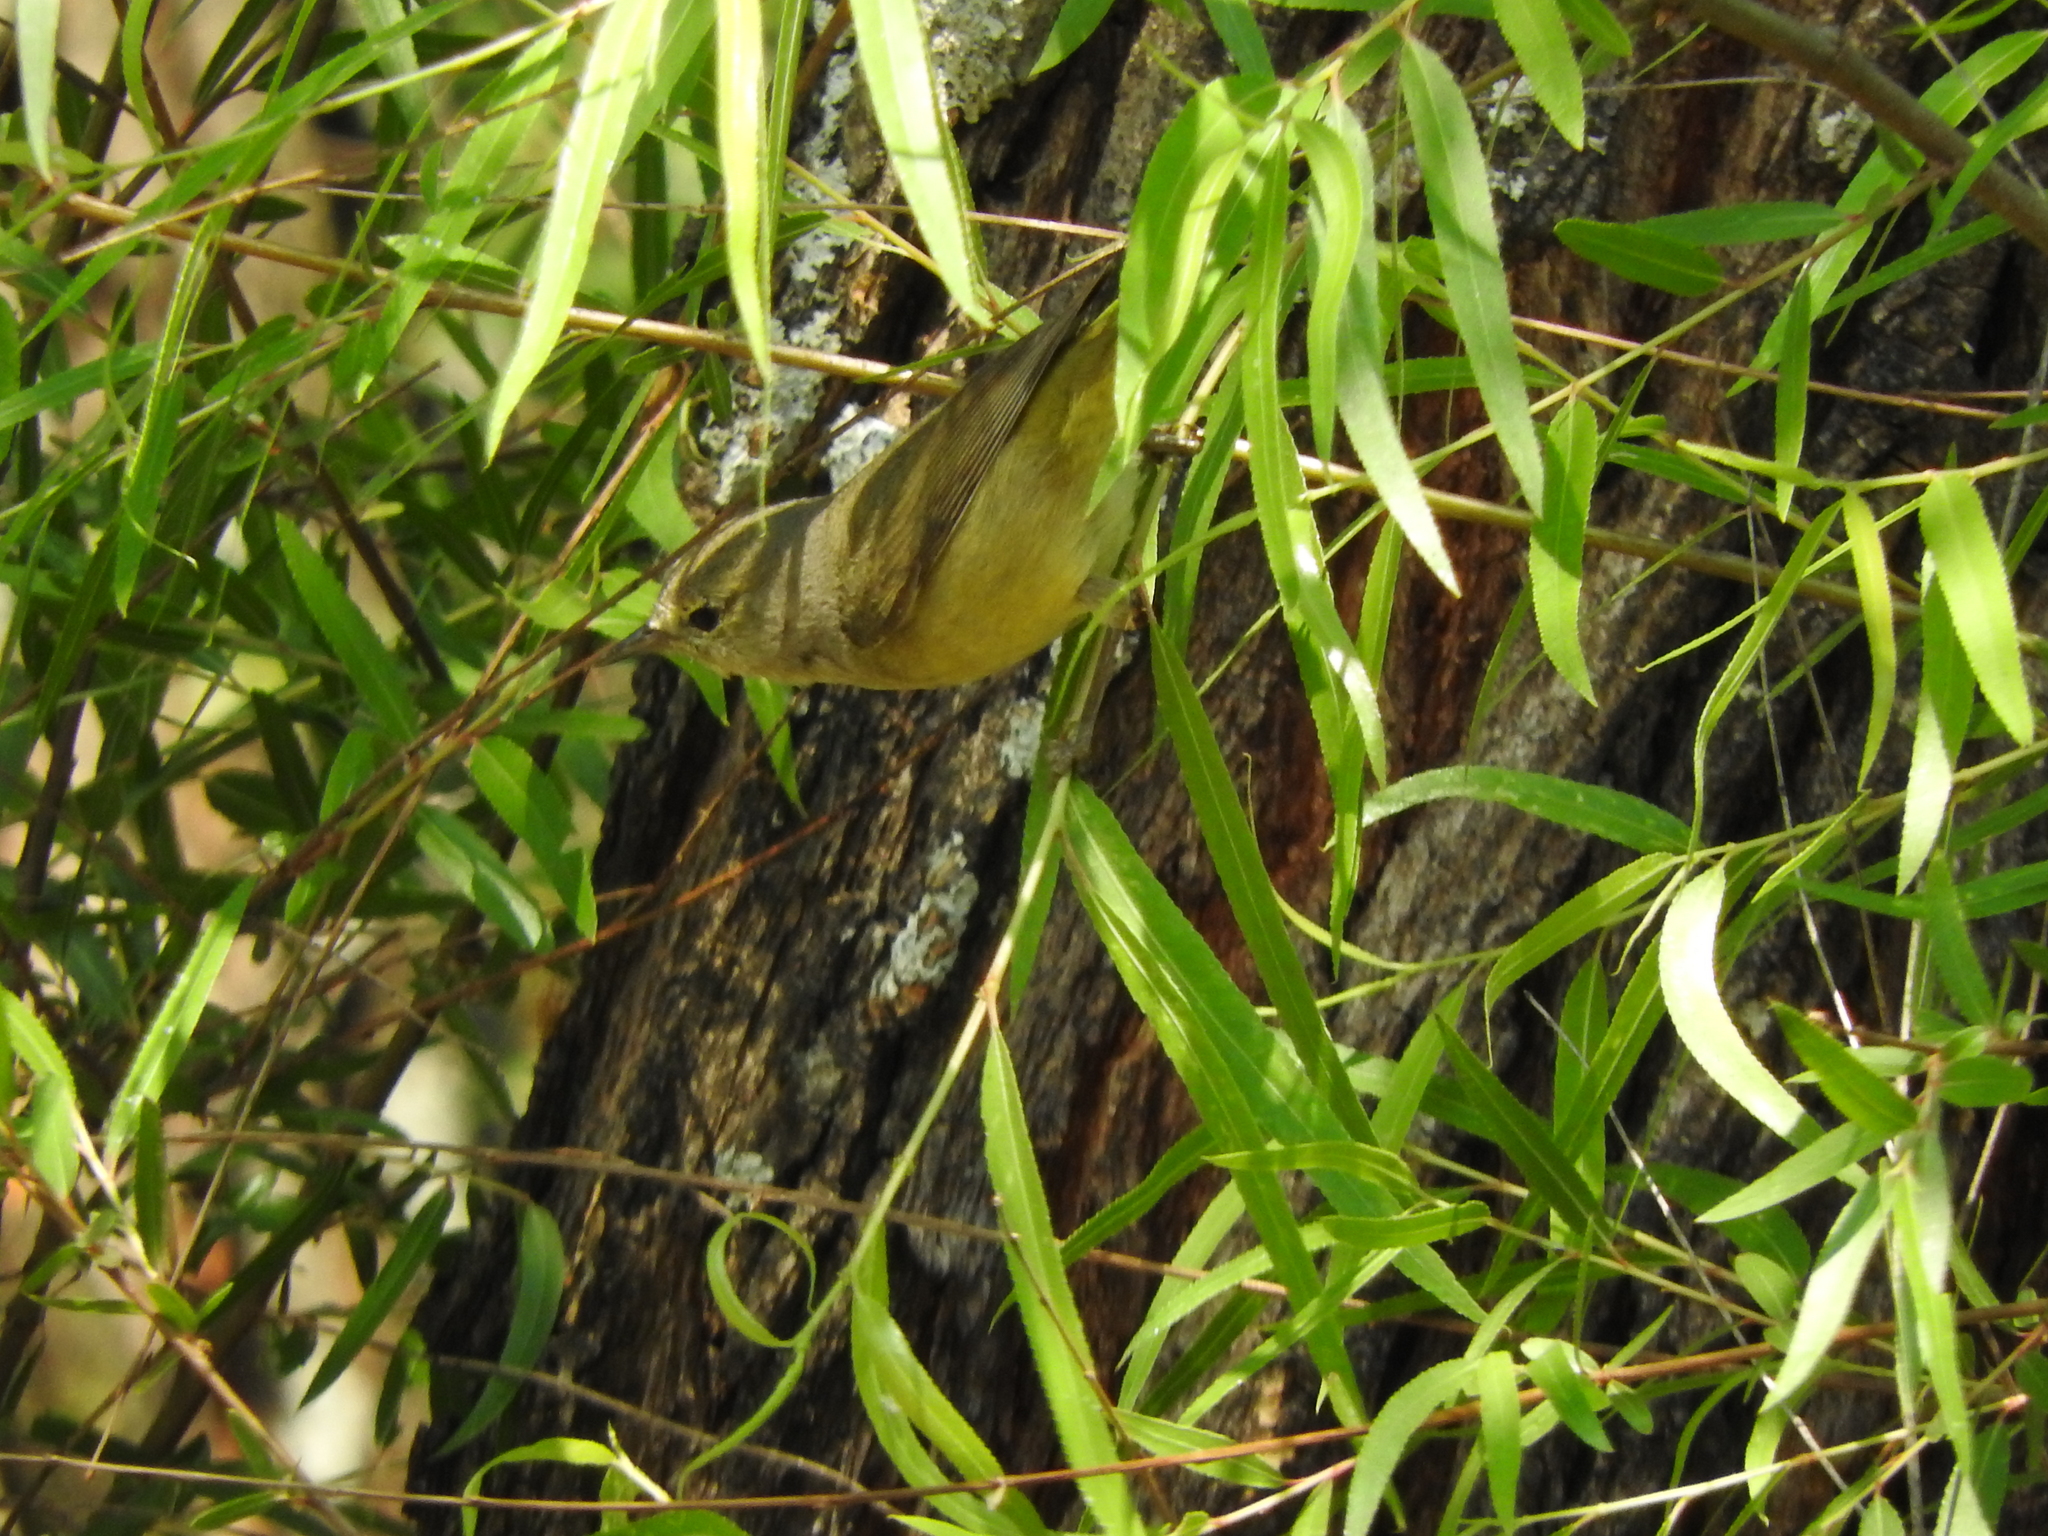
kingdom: Animalia
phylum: Chordata
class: Aves
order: Passeriformes
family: Parulidae
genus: Leiothlypis
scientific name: Leiothlypis celata
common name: Orange-crowned warbler
